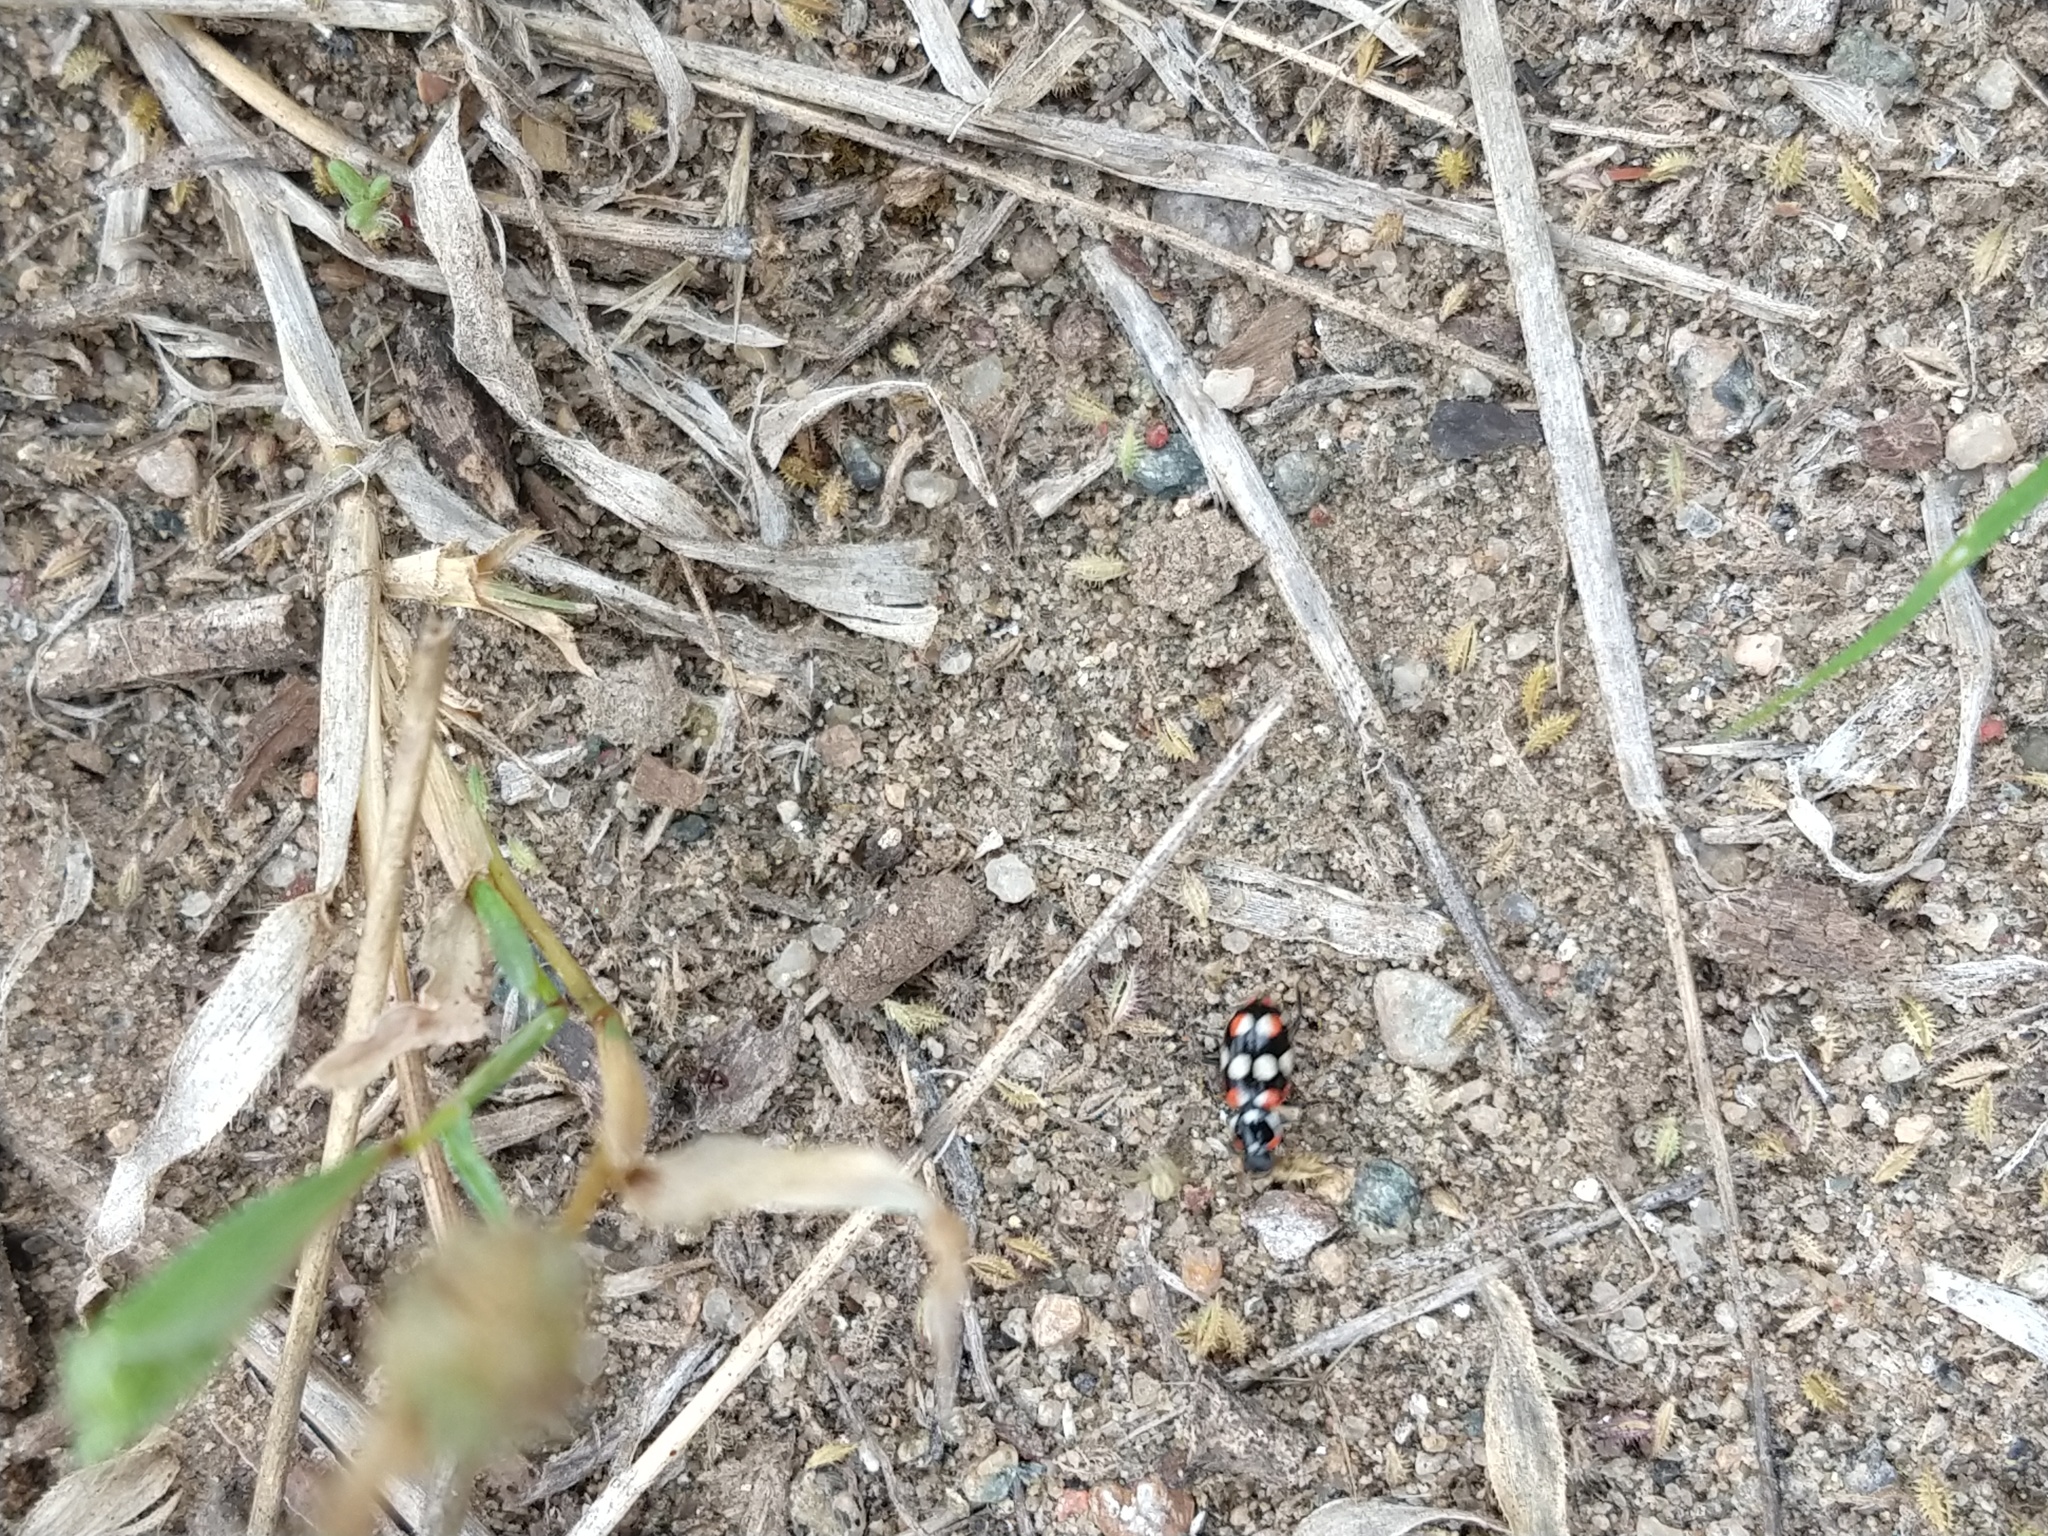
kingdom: Animalia
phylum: Arthropoda
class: Insecta
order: Coleoptera
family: Coccinellidae
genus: Eriopis
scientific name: Eriopis connexa
